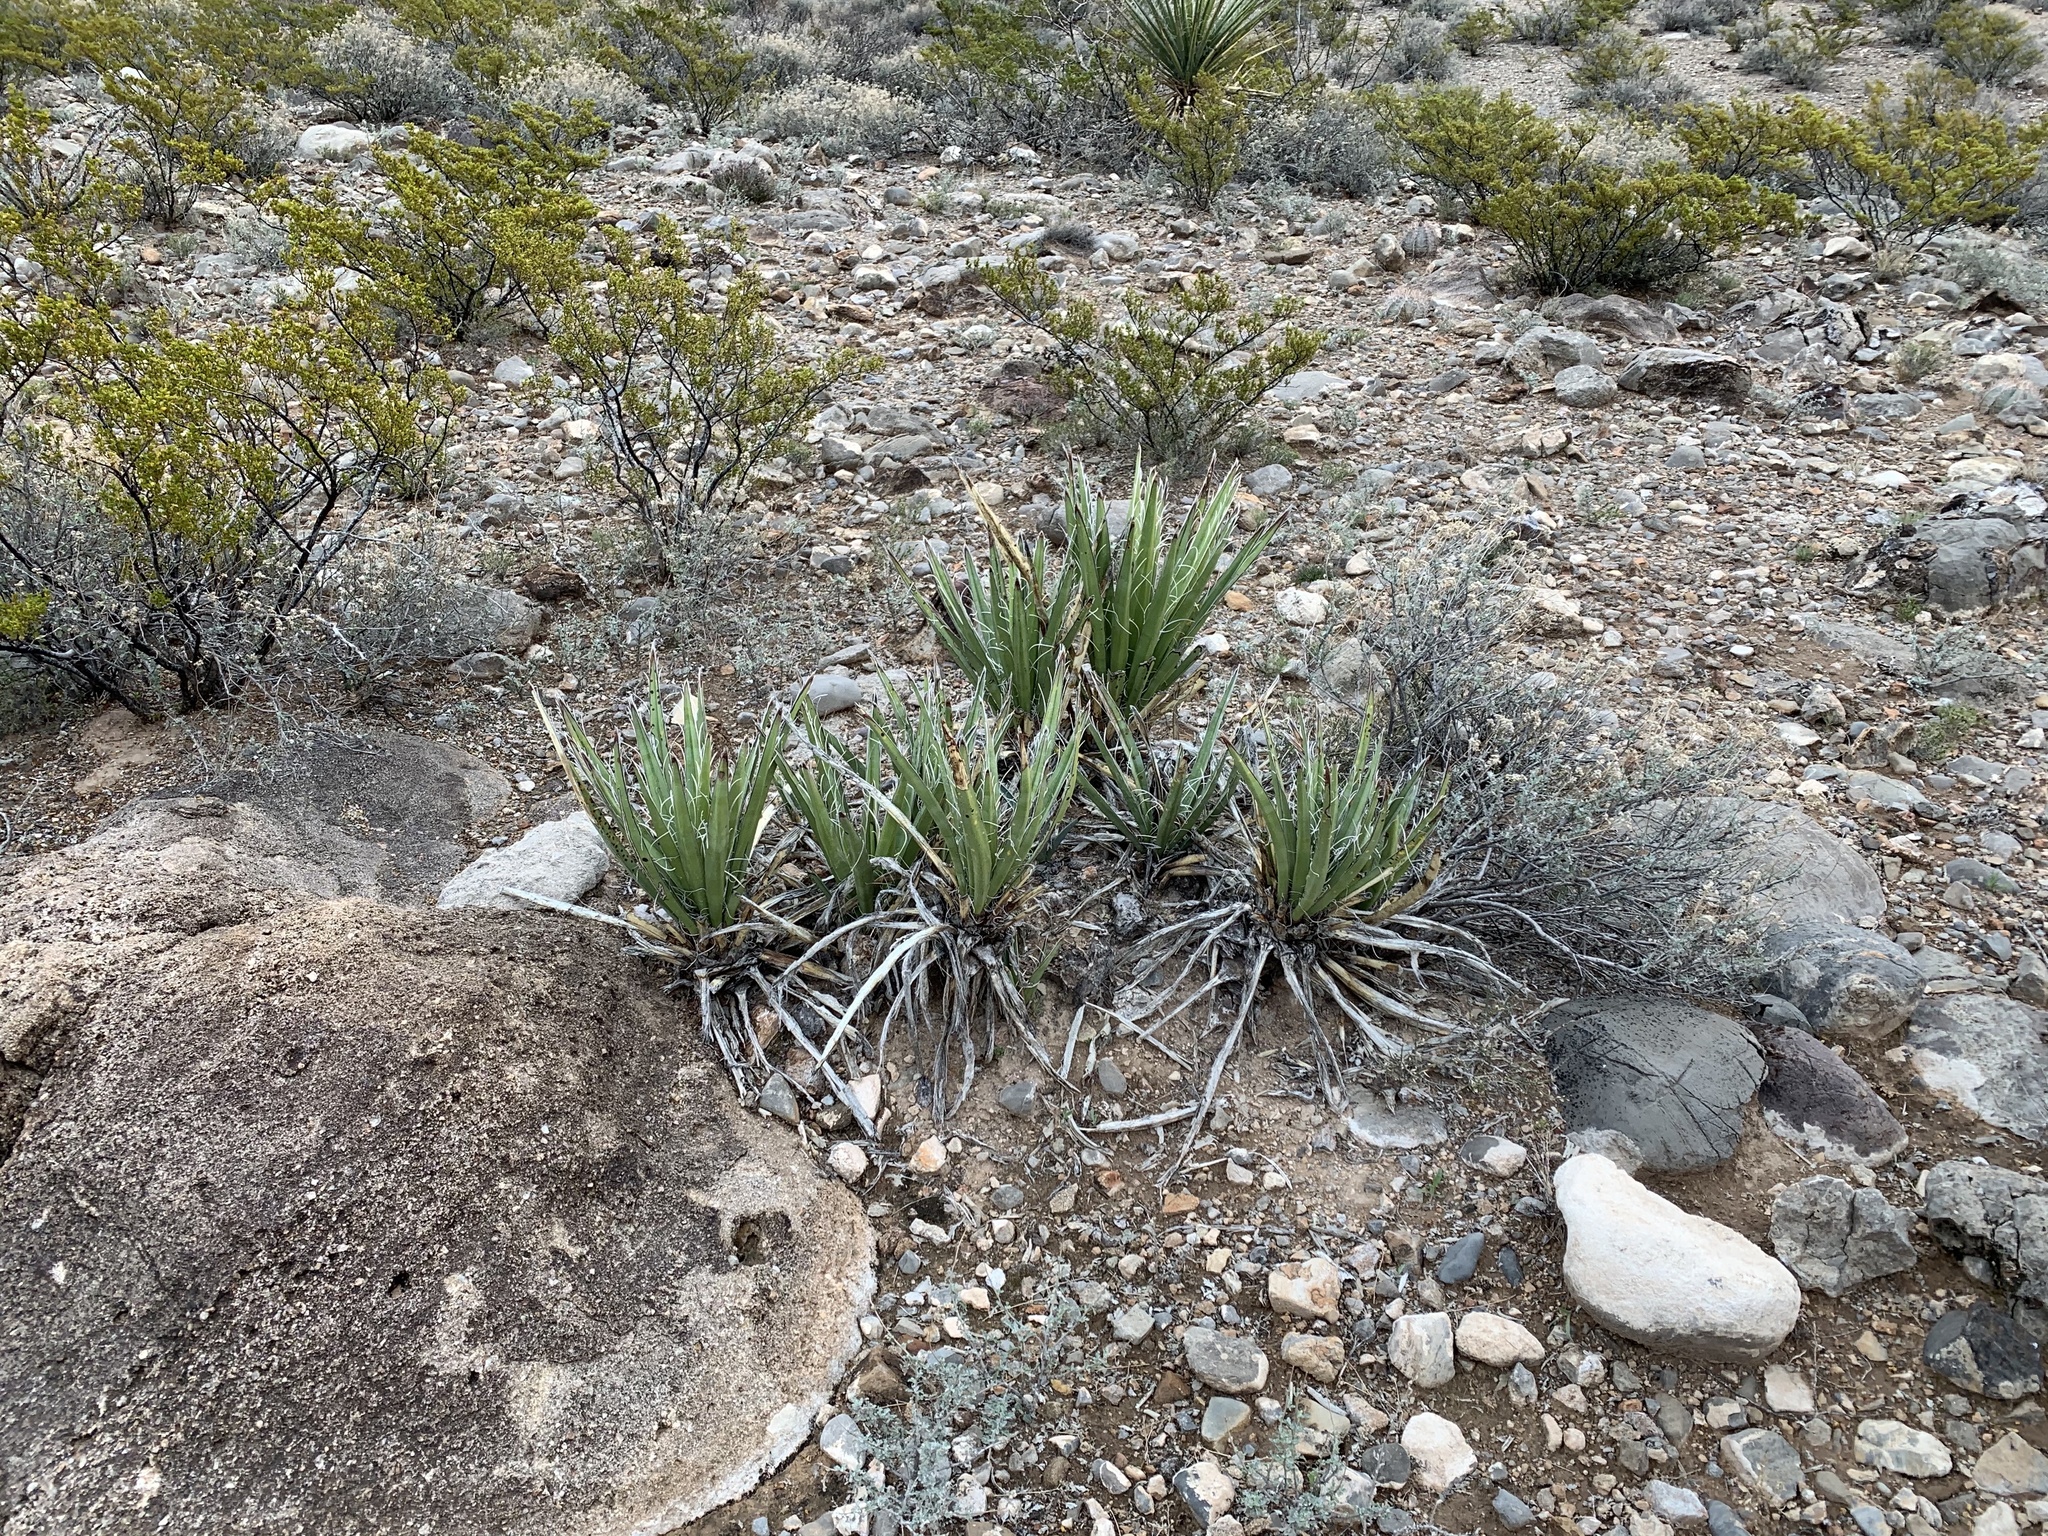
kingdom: Plantae
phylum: Tracheophyta
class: Liliopsida
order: Asparagales
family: Asparagaceae
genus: Yucca
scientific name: Yucca baccata
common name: Banana yucca
